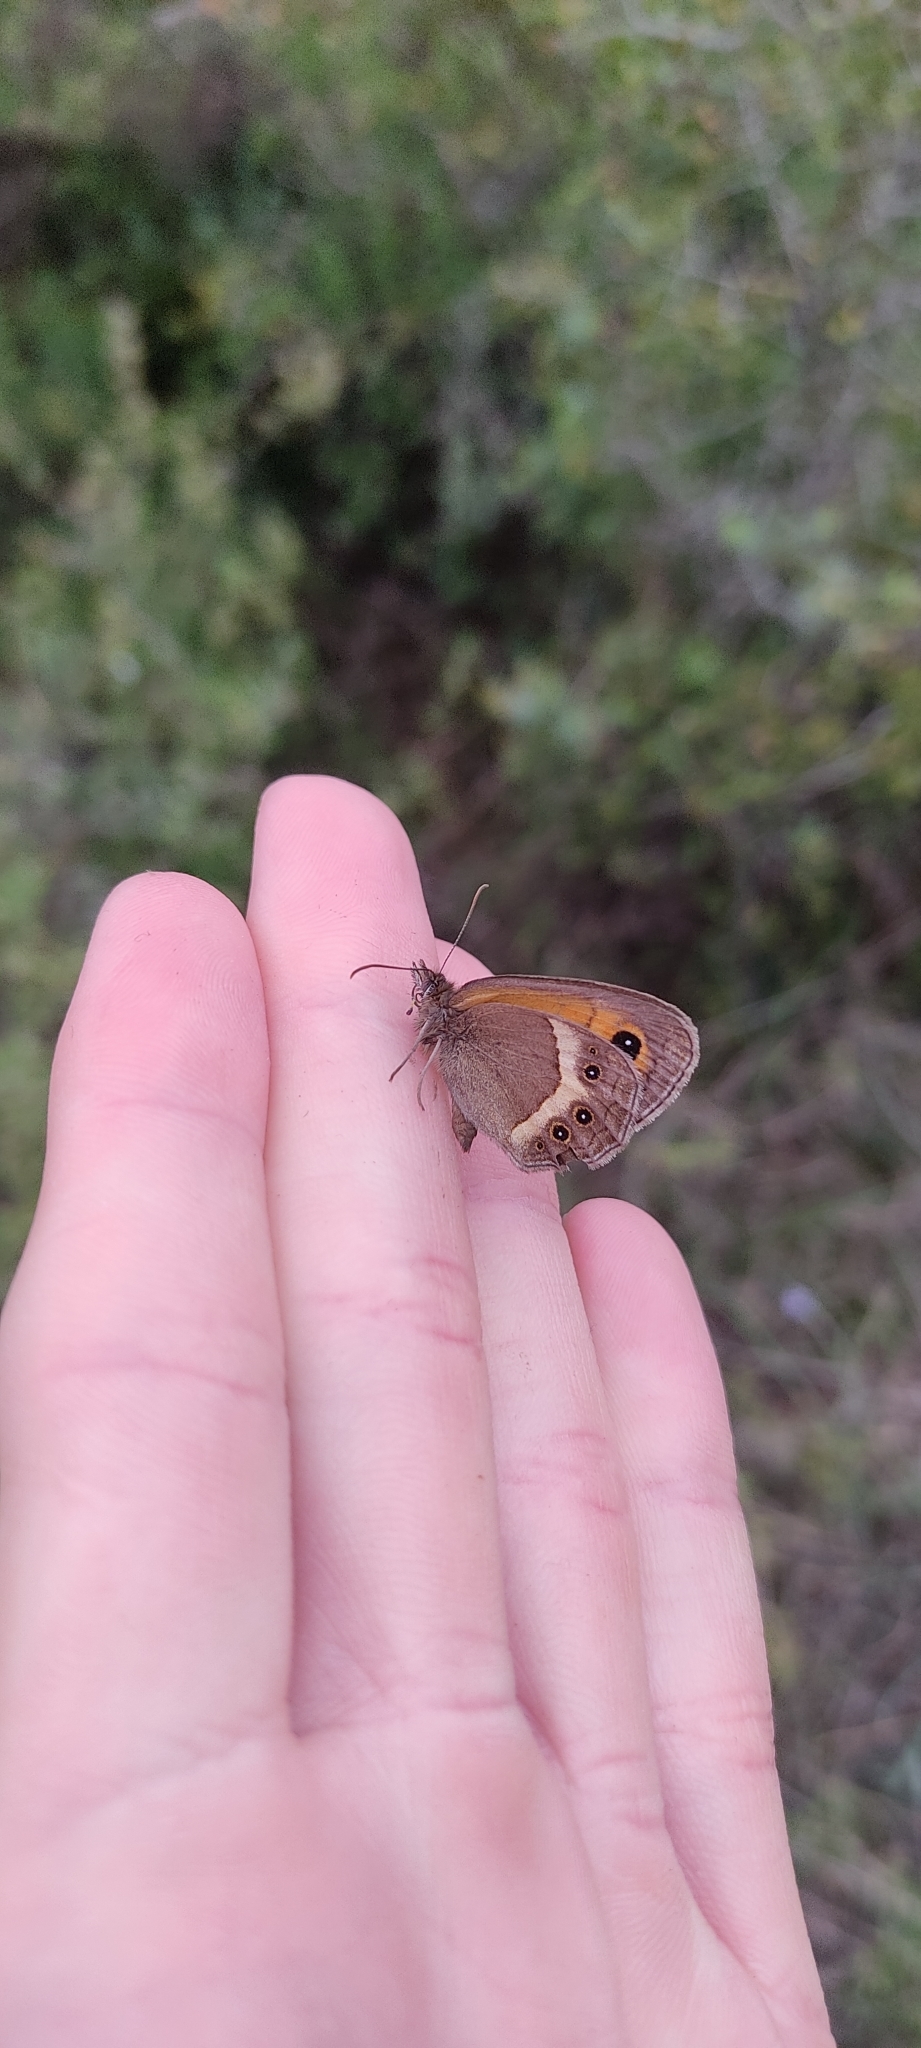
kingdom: Animalia
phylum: Arthropoda
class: Insecta
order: Lepidoptera
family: Nymphalidae
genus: Pyronia
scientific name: Pyronia bathseba
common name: Spanish gatekeeper
